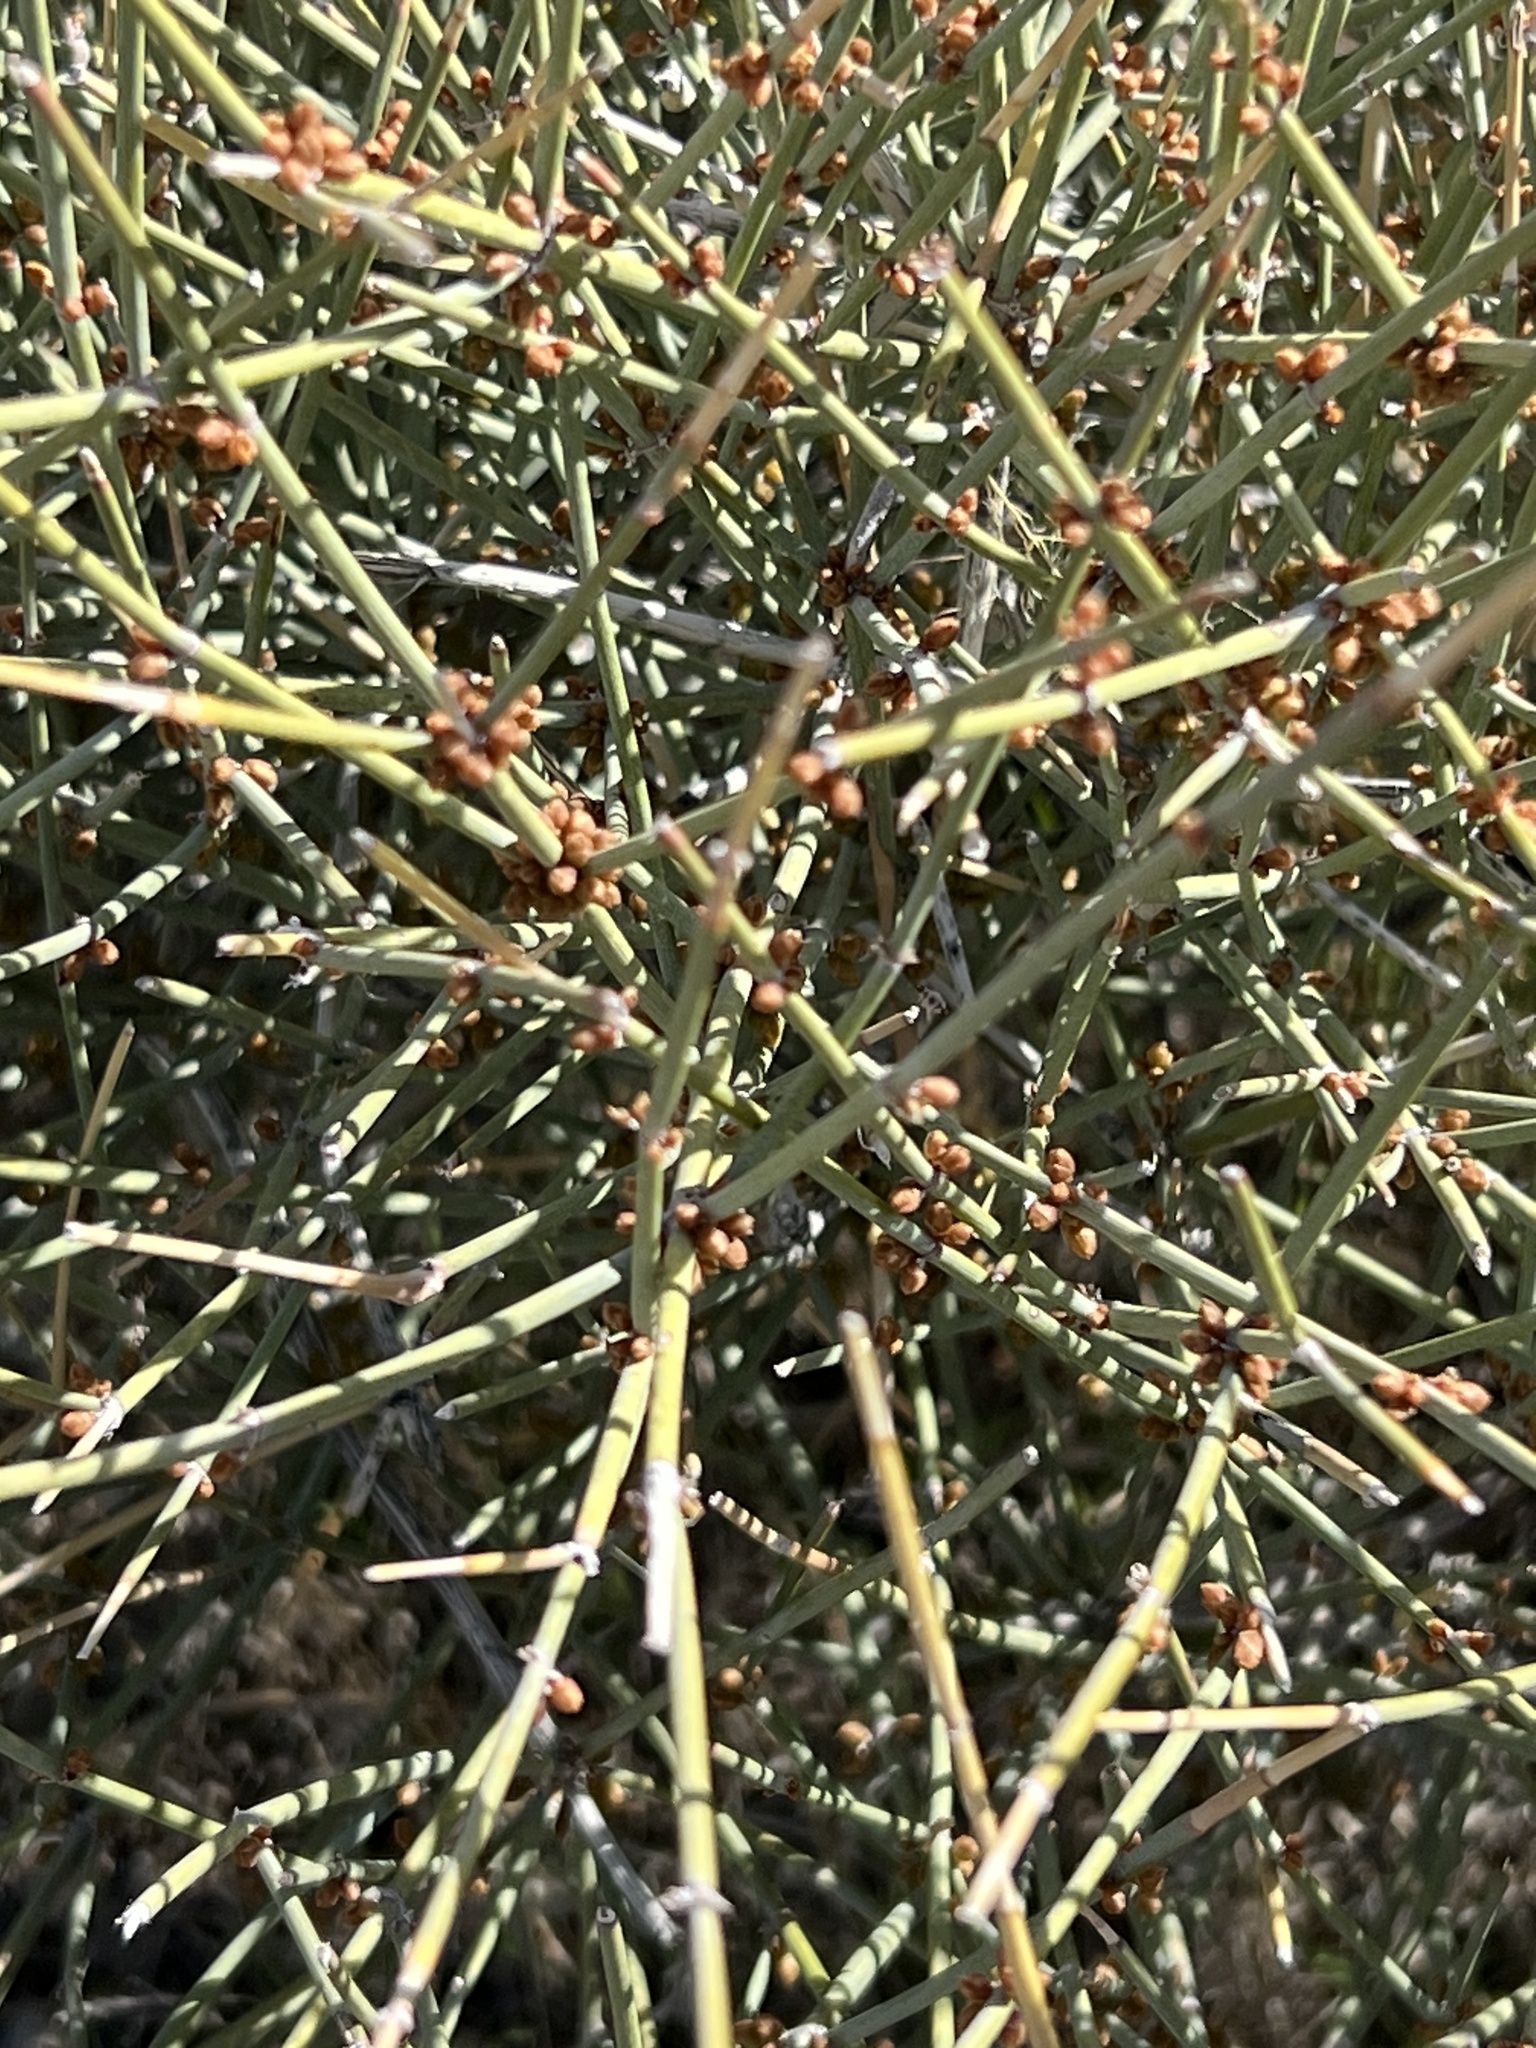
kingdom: Plantae
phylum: Tracheophyta
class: Gnetopsida
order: Ephedrales
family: Ephedraceae
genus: Ephedra
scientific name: Ephedra nevadensis
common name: Gray ephedra
